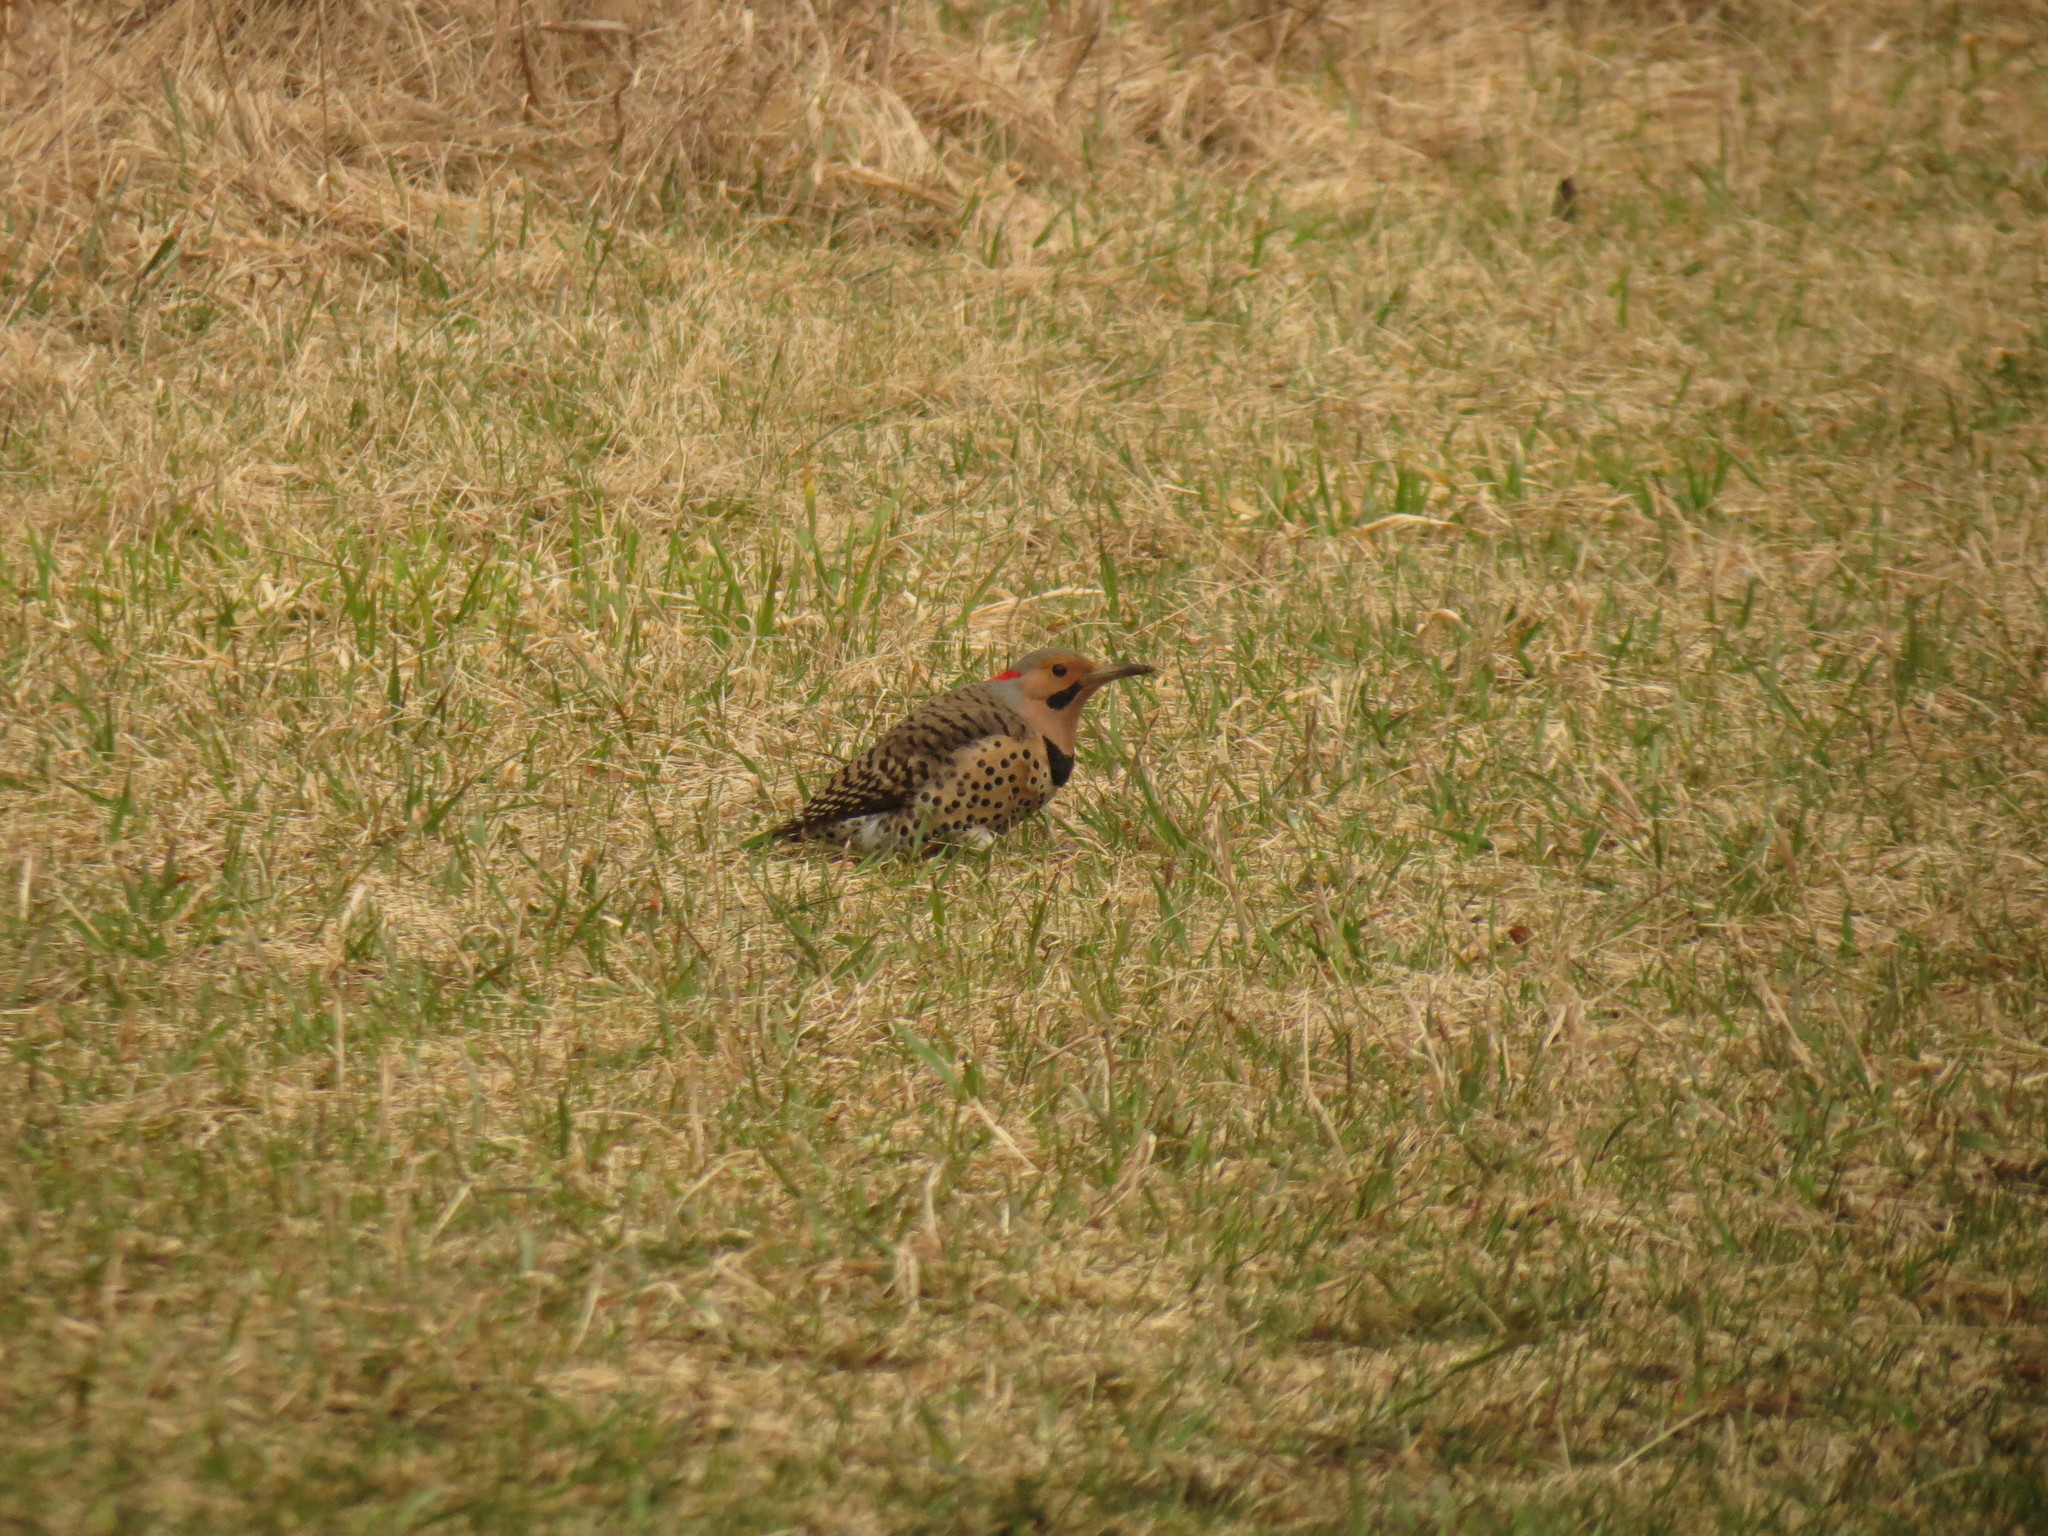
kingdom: Animalia
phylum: Chordata
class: Aves
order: Piciformes
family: Picidae
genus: Colaptes
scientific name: Colaptes auratus
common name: Northern flicker
